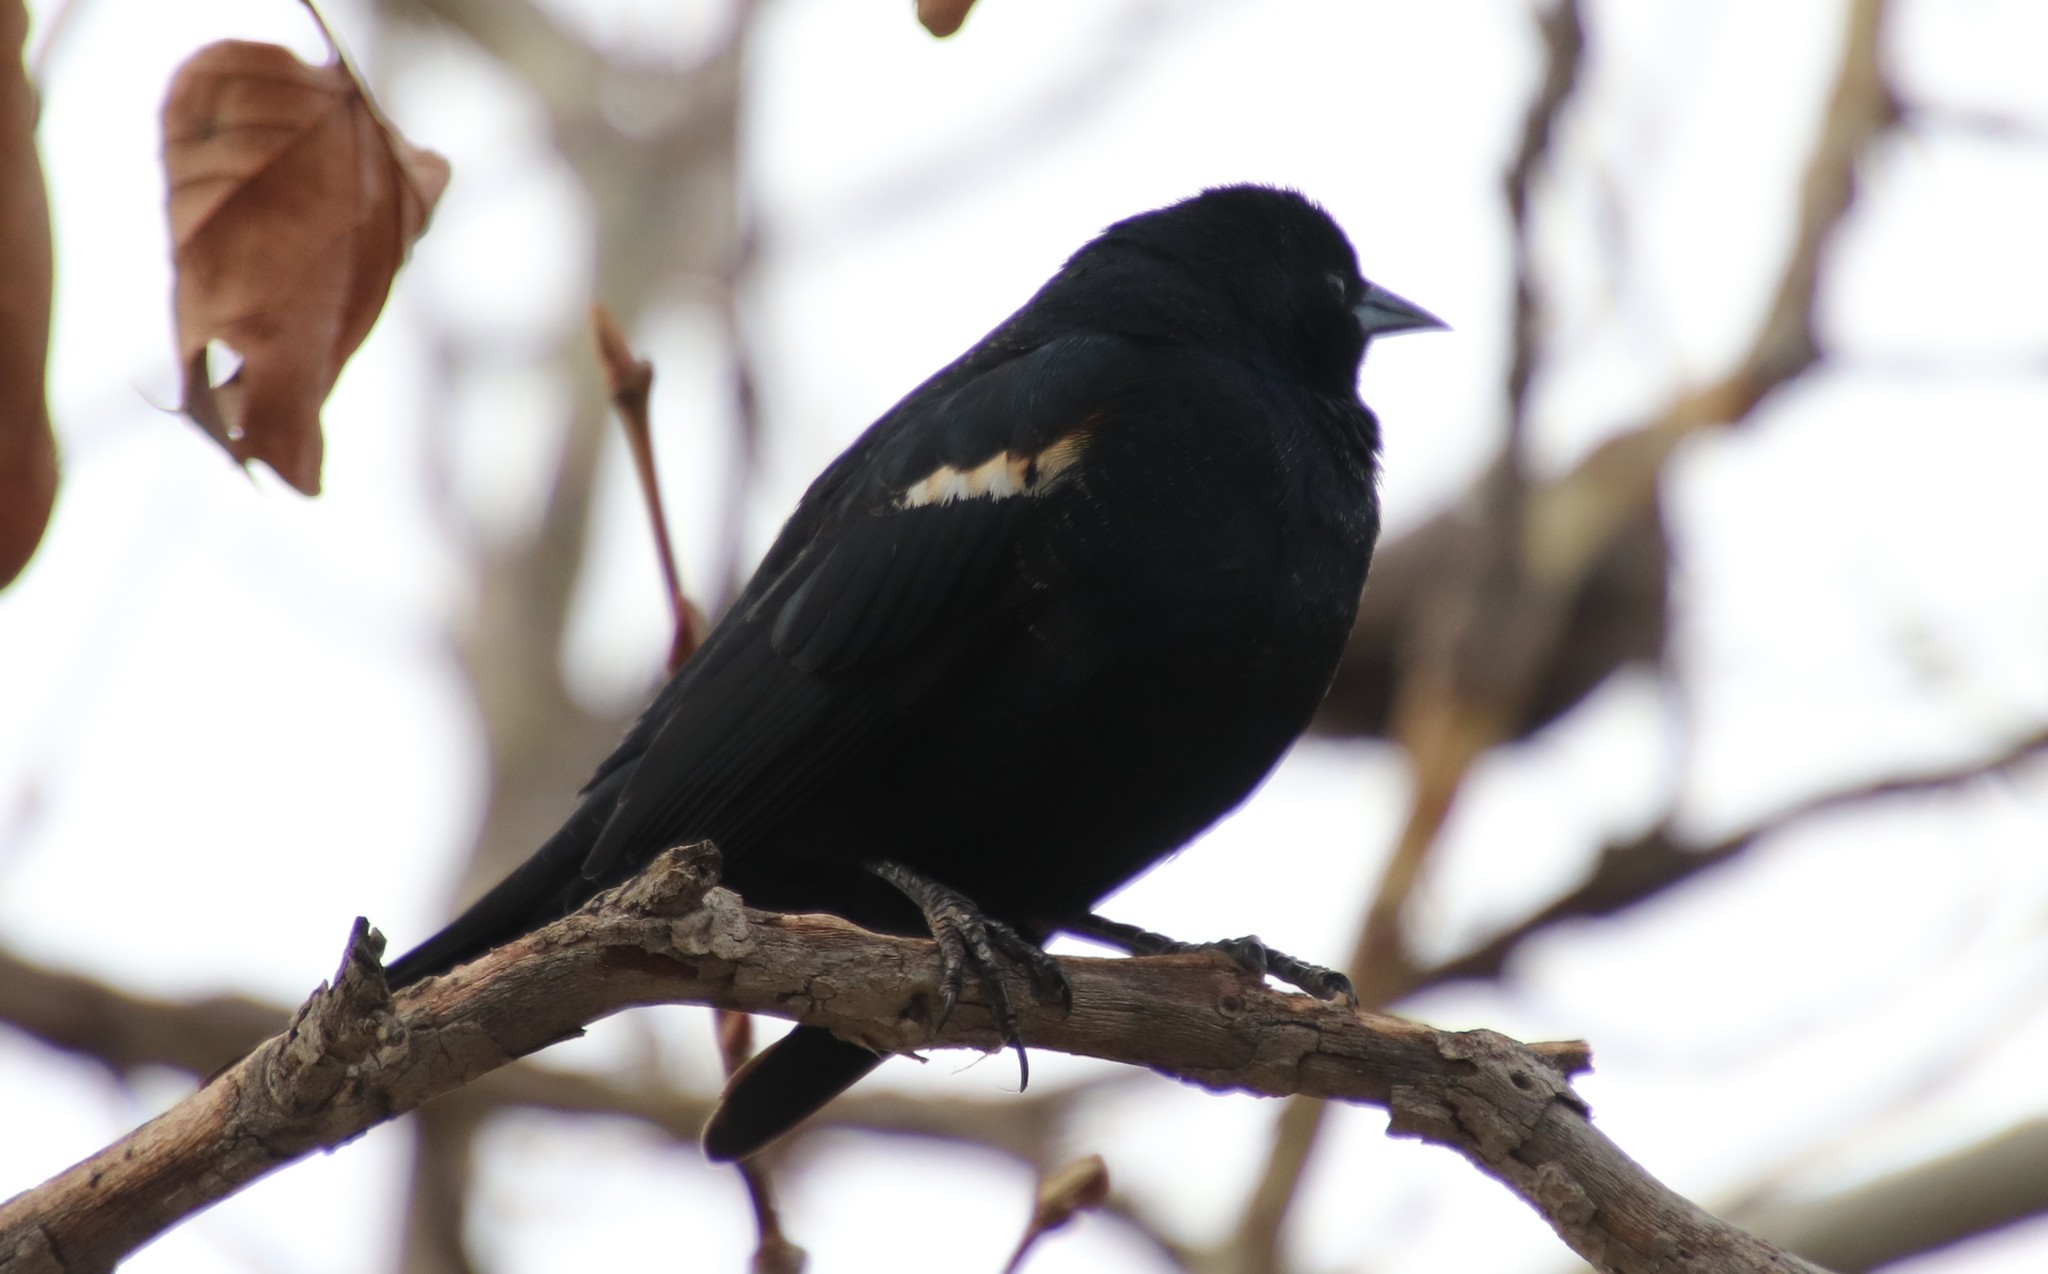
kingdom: Animalia
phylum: Chordata
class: Aves
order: Passeriformes
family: Icteridae
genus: Agelaius
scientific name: Agelaius tricolor
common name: Tricolored blackbird
